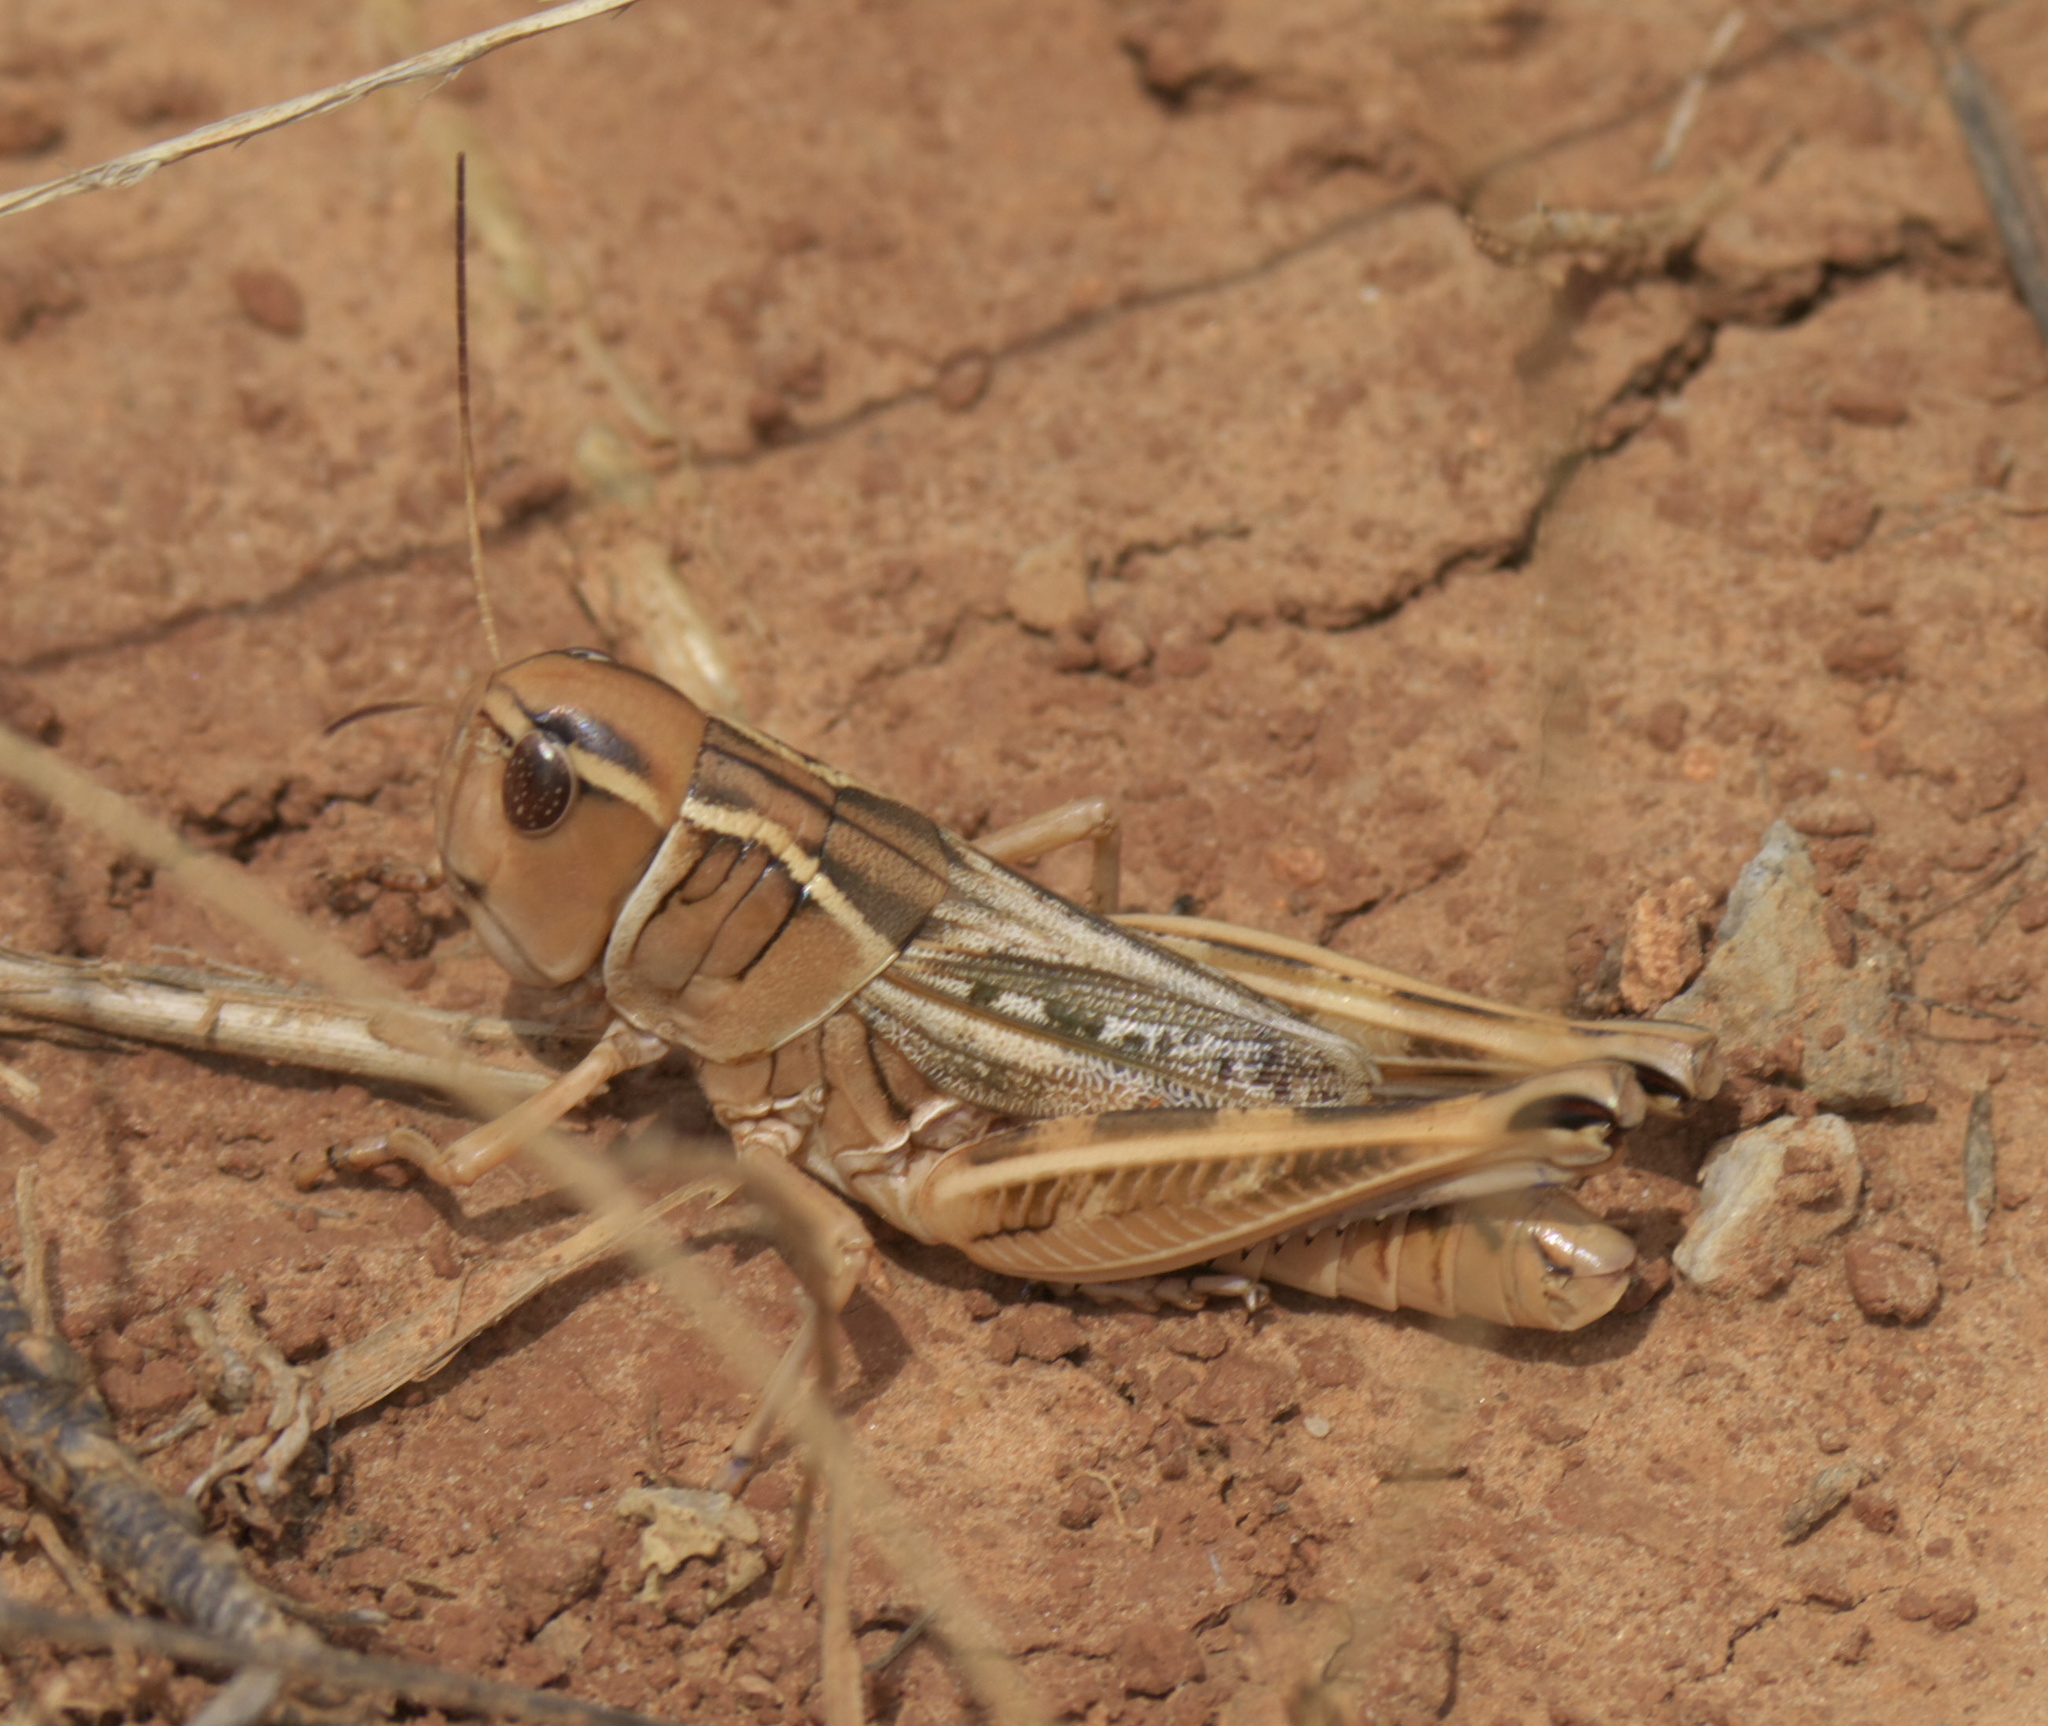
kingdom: Animalia
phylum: Arthropoda
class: Insecta
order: Orthoptera
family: Acrididae
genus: Boopedon
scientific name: Boopedon nubilum
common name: Ebony grasshopper
